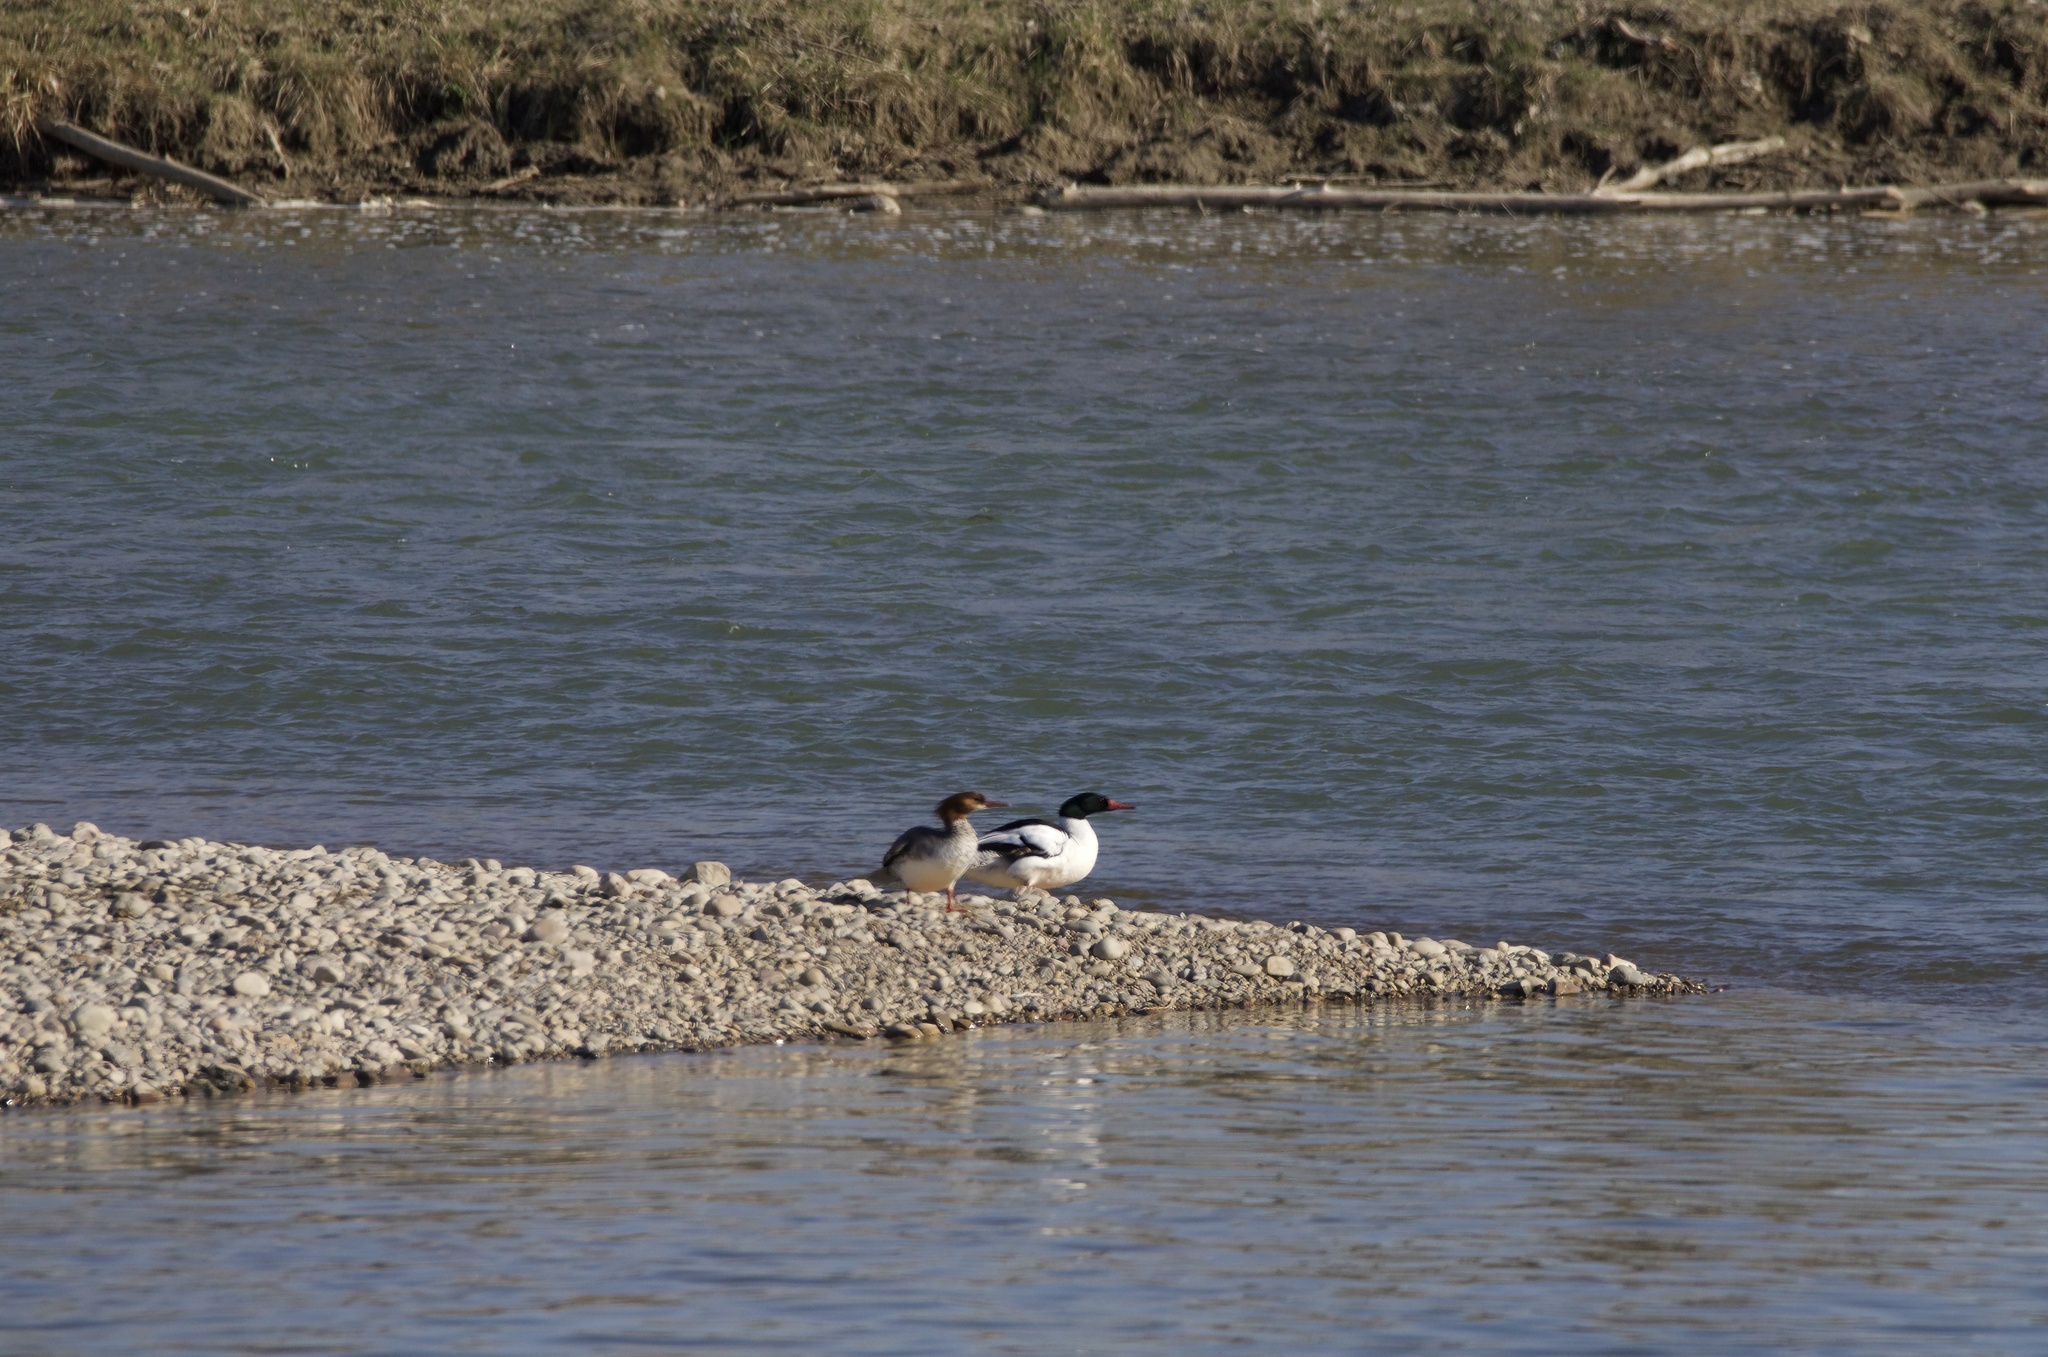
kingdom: Animalia
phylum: Chordata
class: Aves
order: Anseriformes
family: Anatidae
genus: Mergus
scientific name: Mergus merganser
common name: Common merganser
